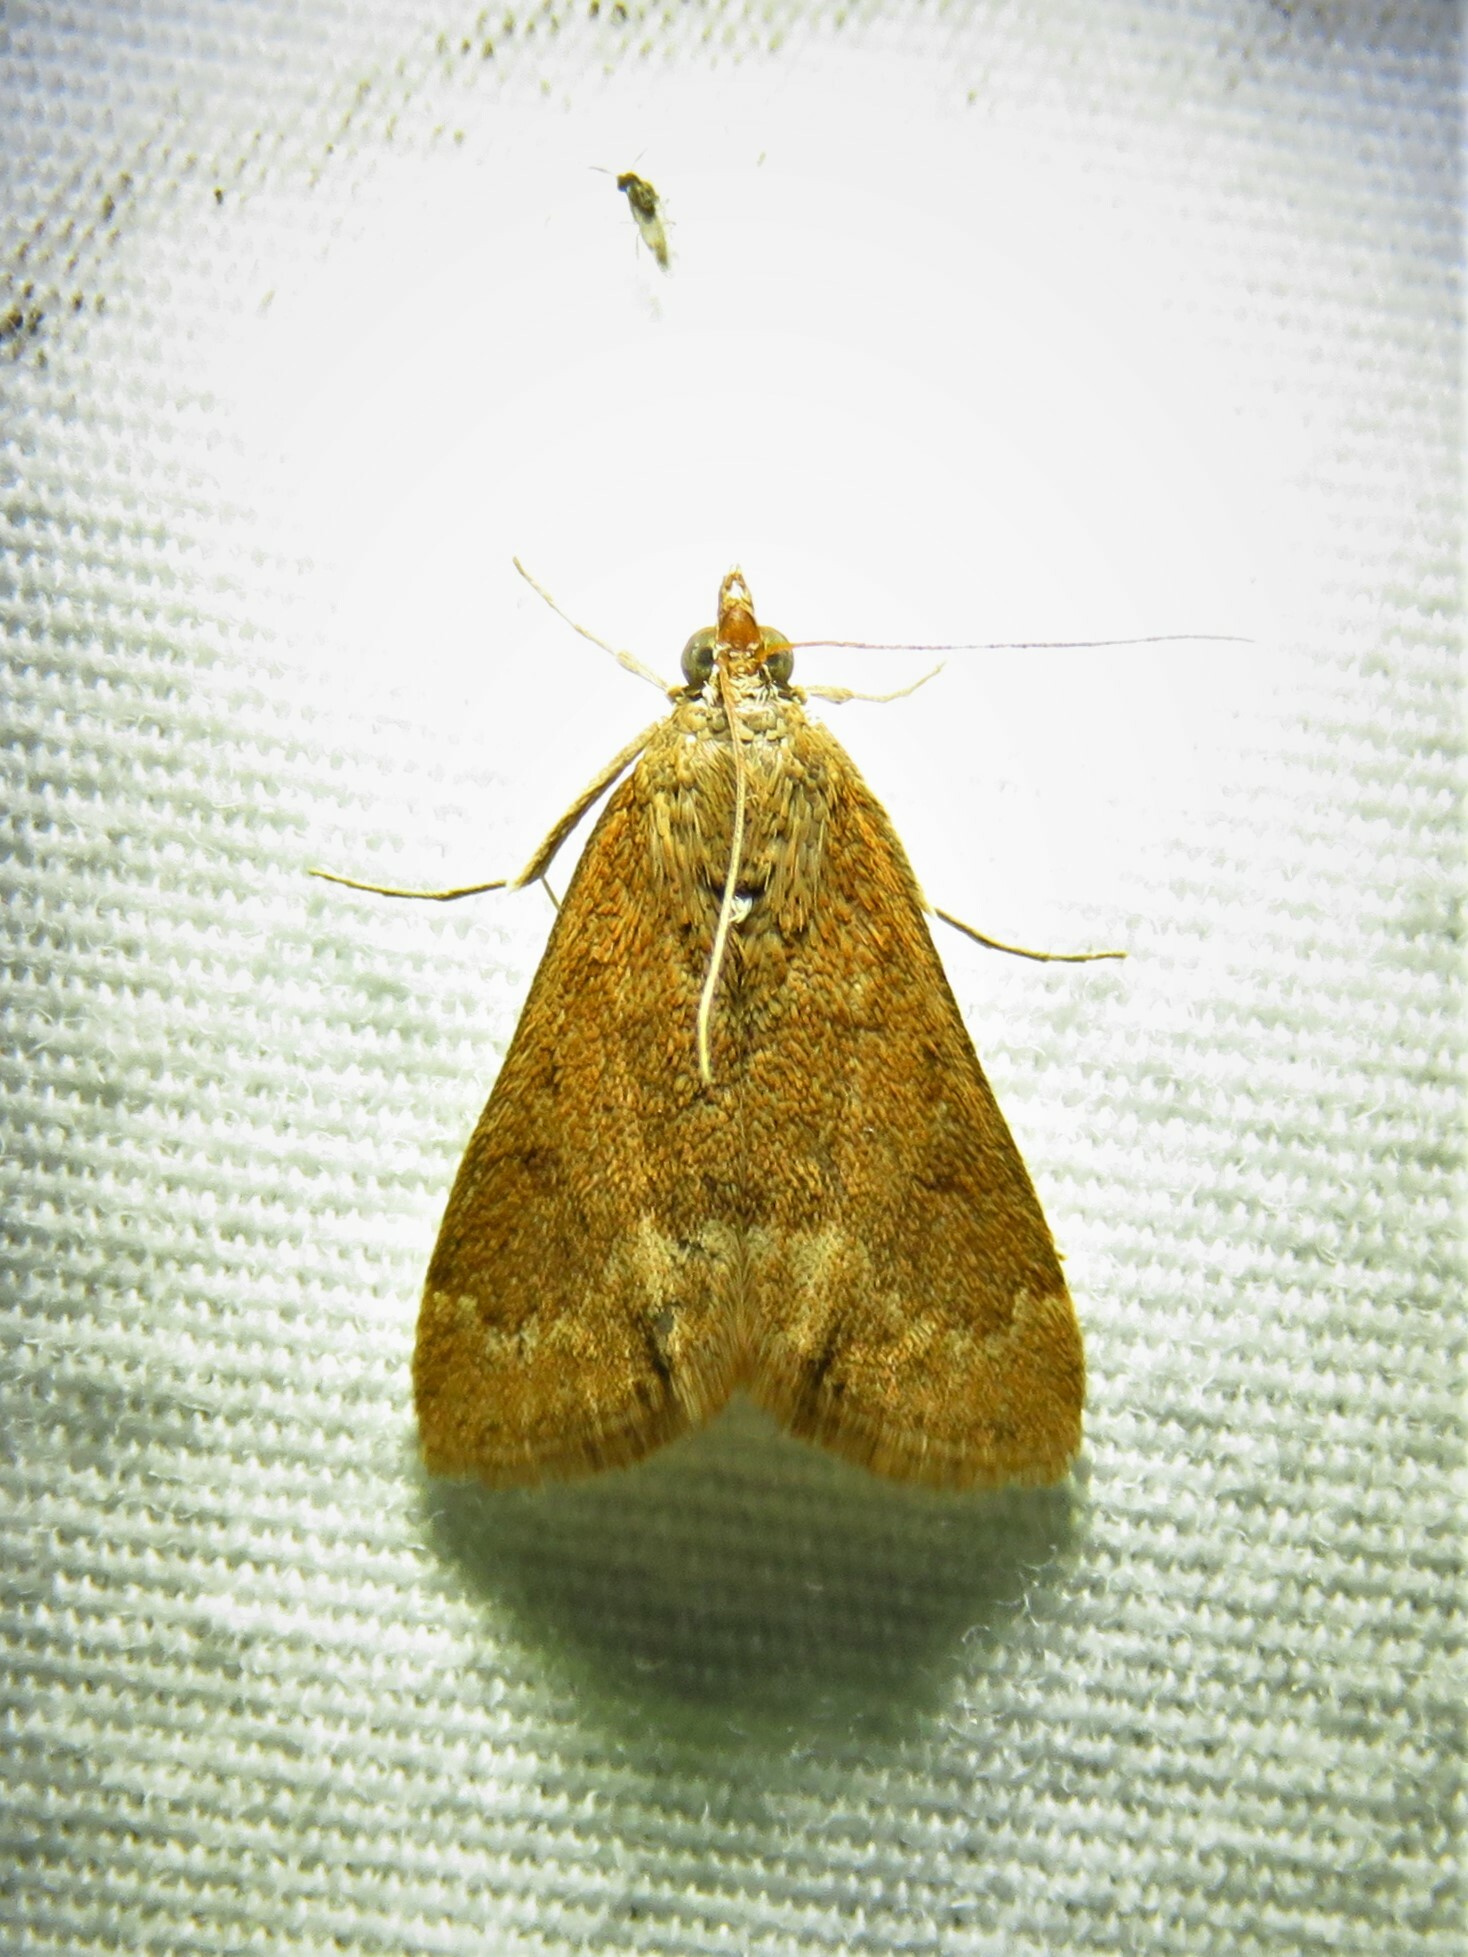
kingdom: Animalia
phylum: Arthropoda
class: Insecta
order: Lepidoptera
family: Crambidae
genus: Achyra
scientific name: Achyra rantalis
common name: Garden webworm
